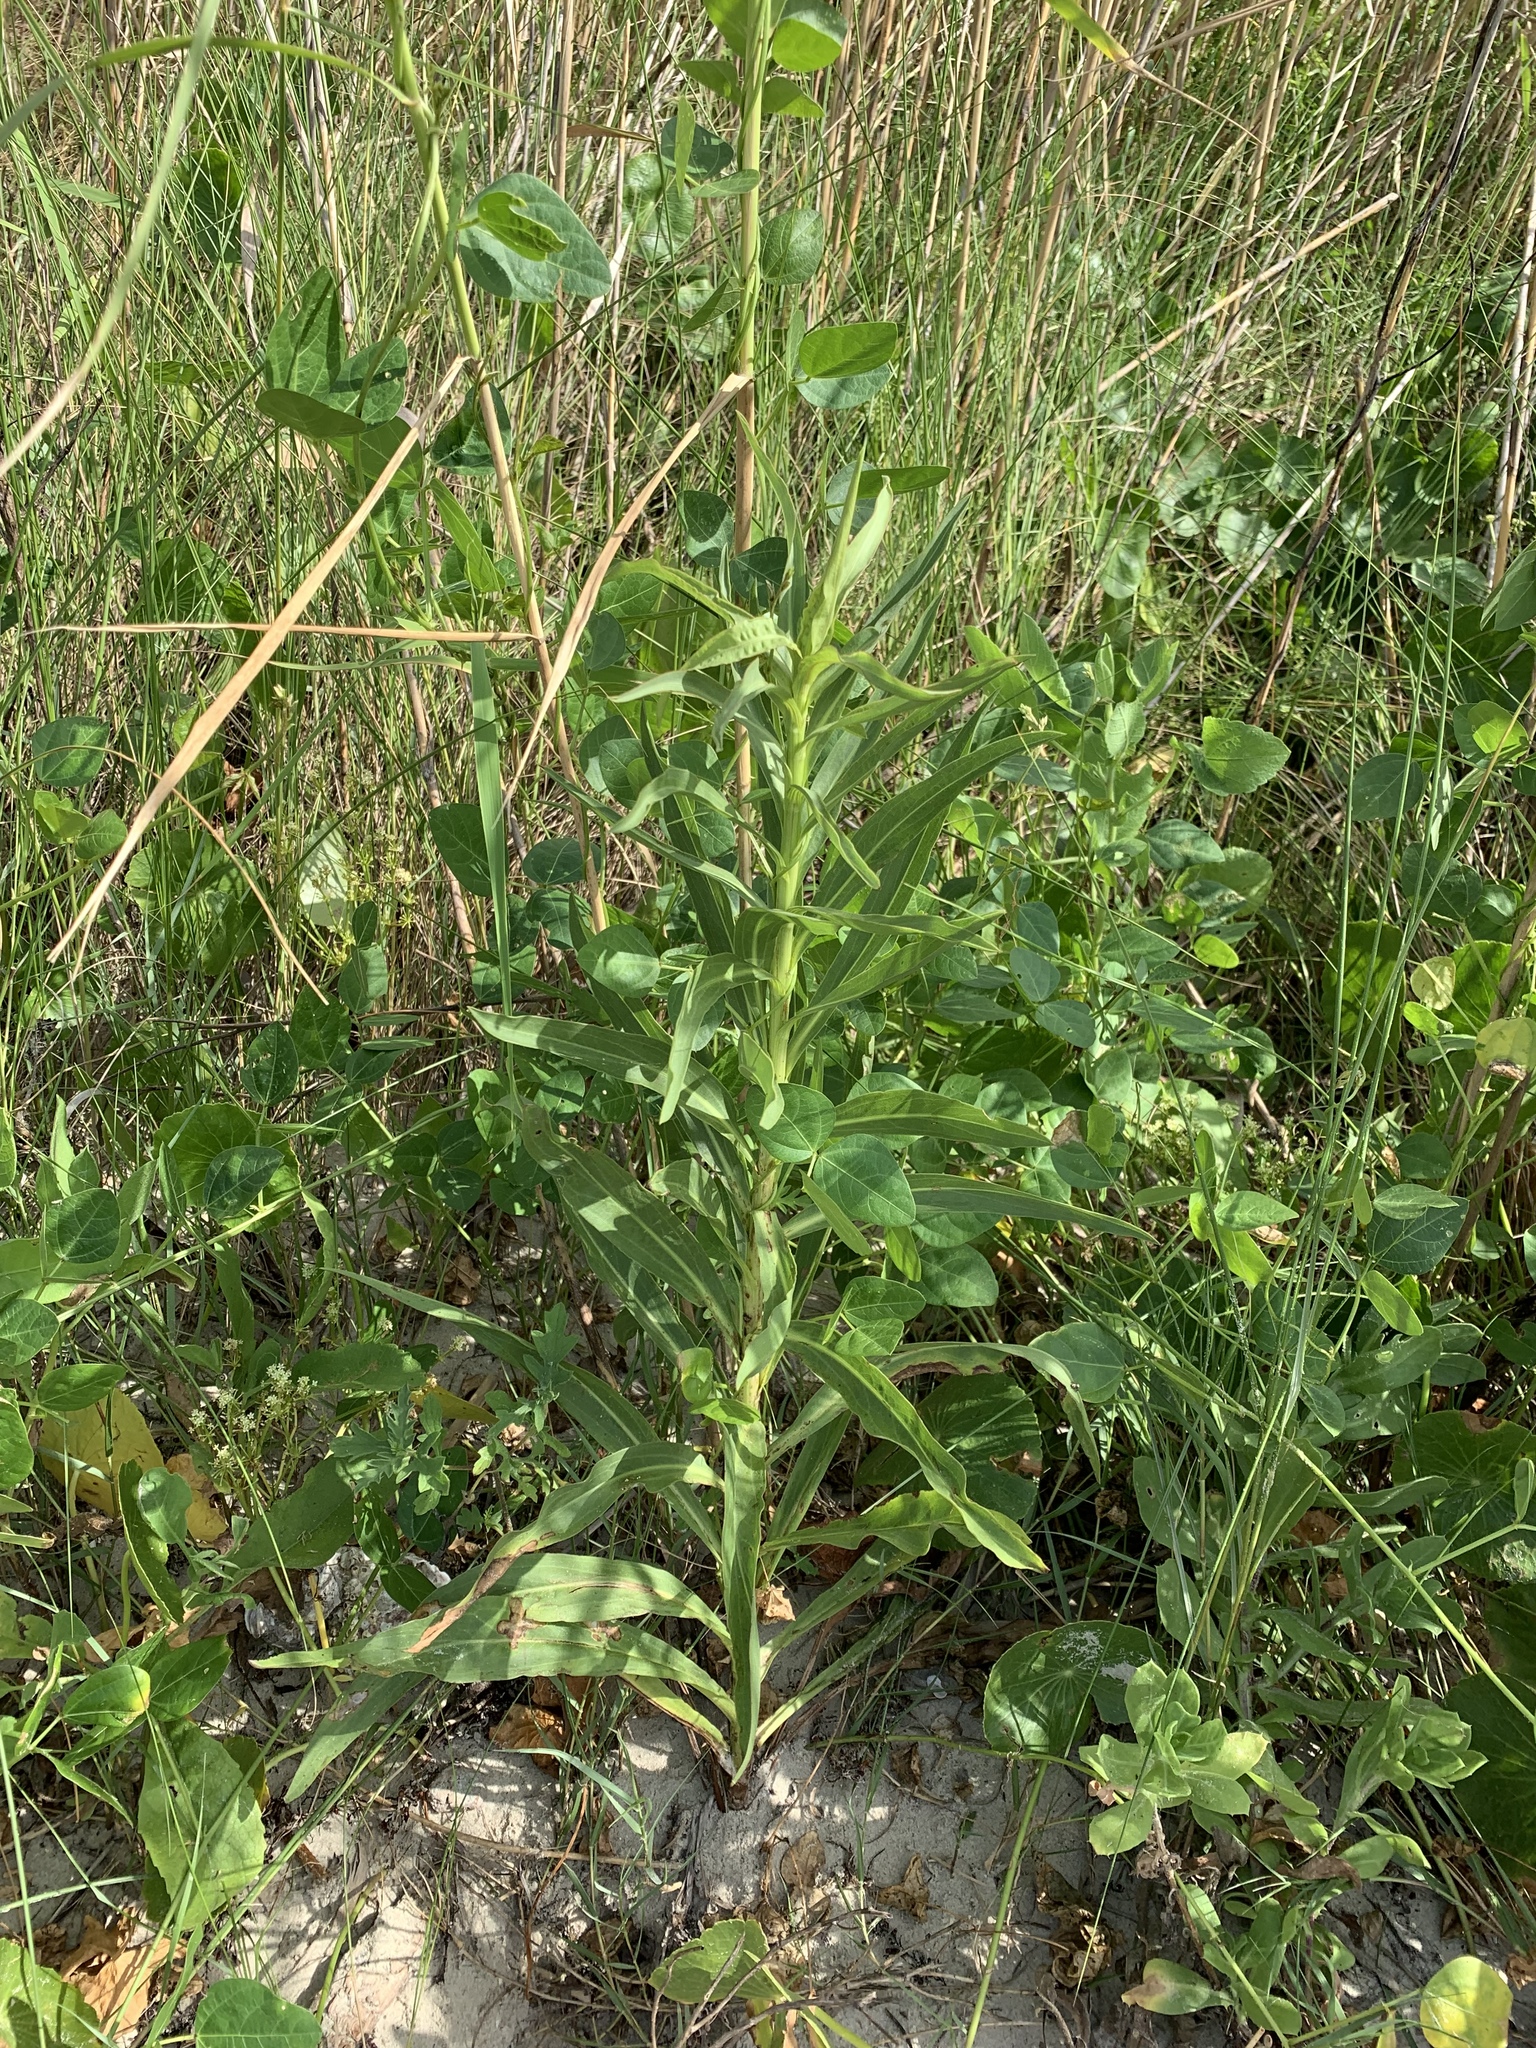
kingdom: Plantae
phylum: Tracheophyta
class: Magnoliopsida
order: Asterales
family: Asteraceae
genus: Solidago
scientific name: Solidago mexicana
